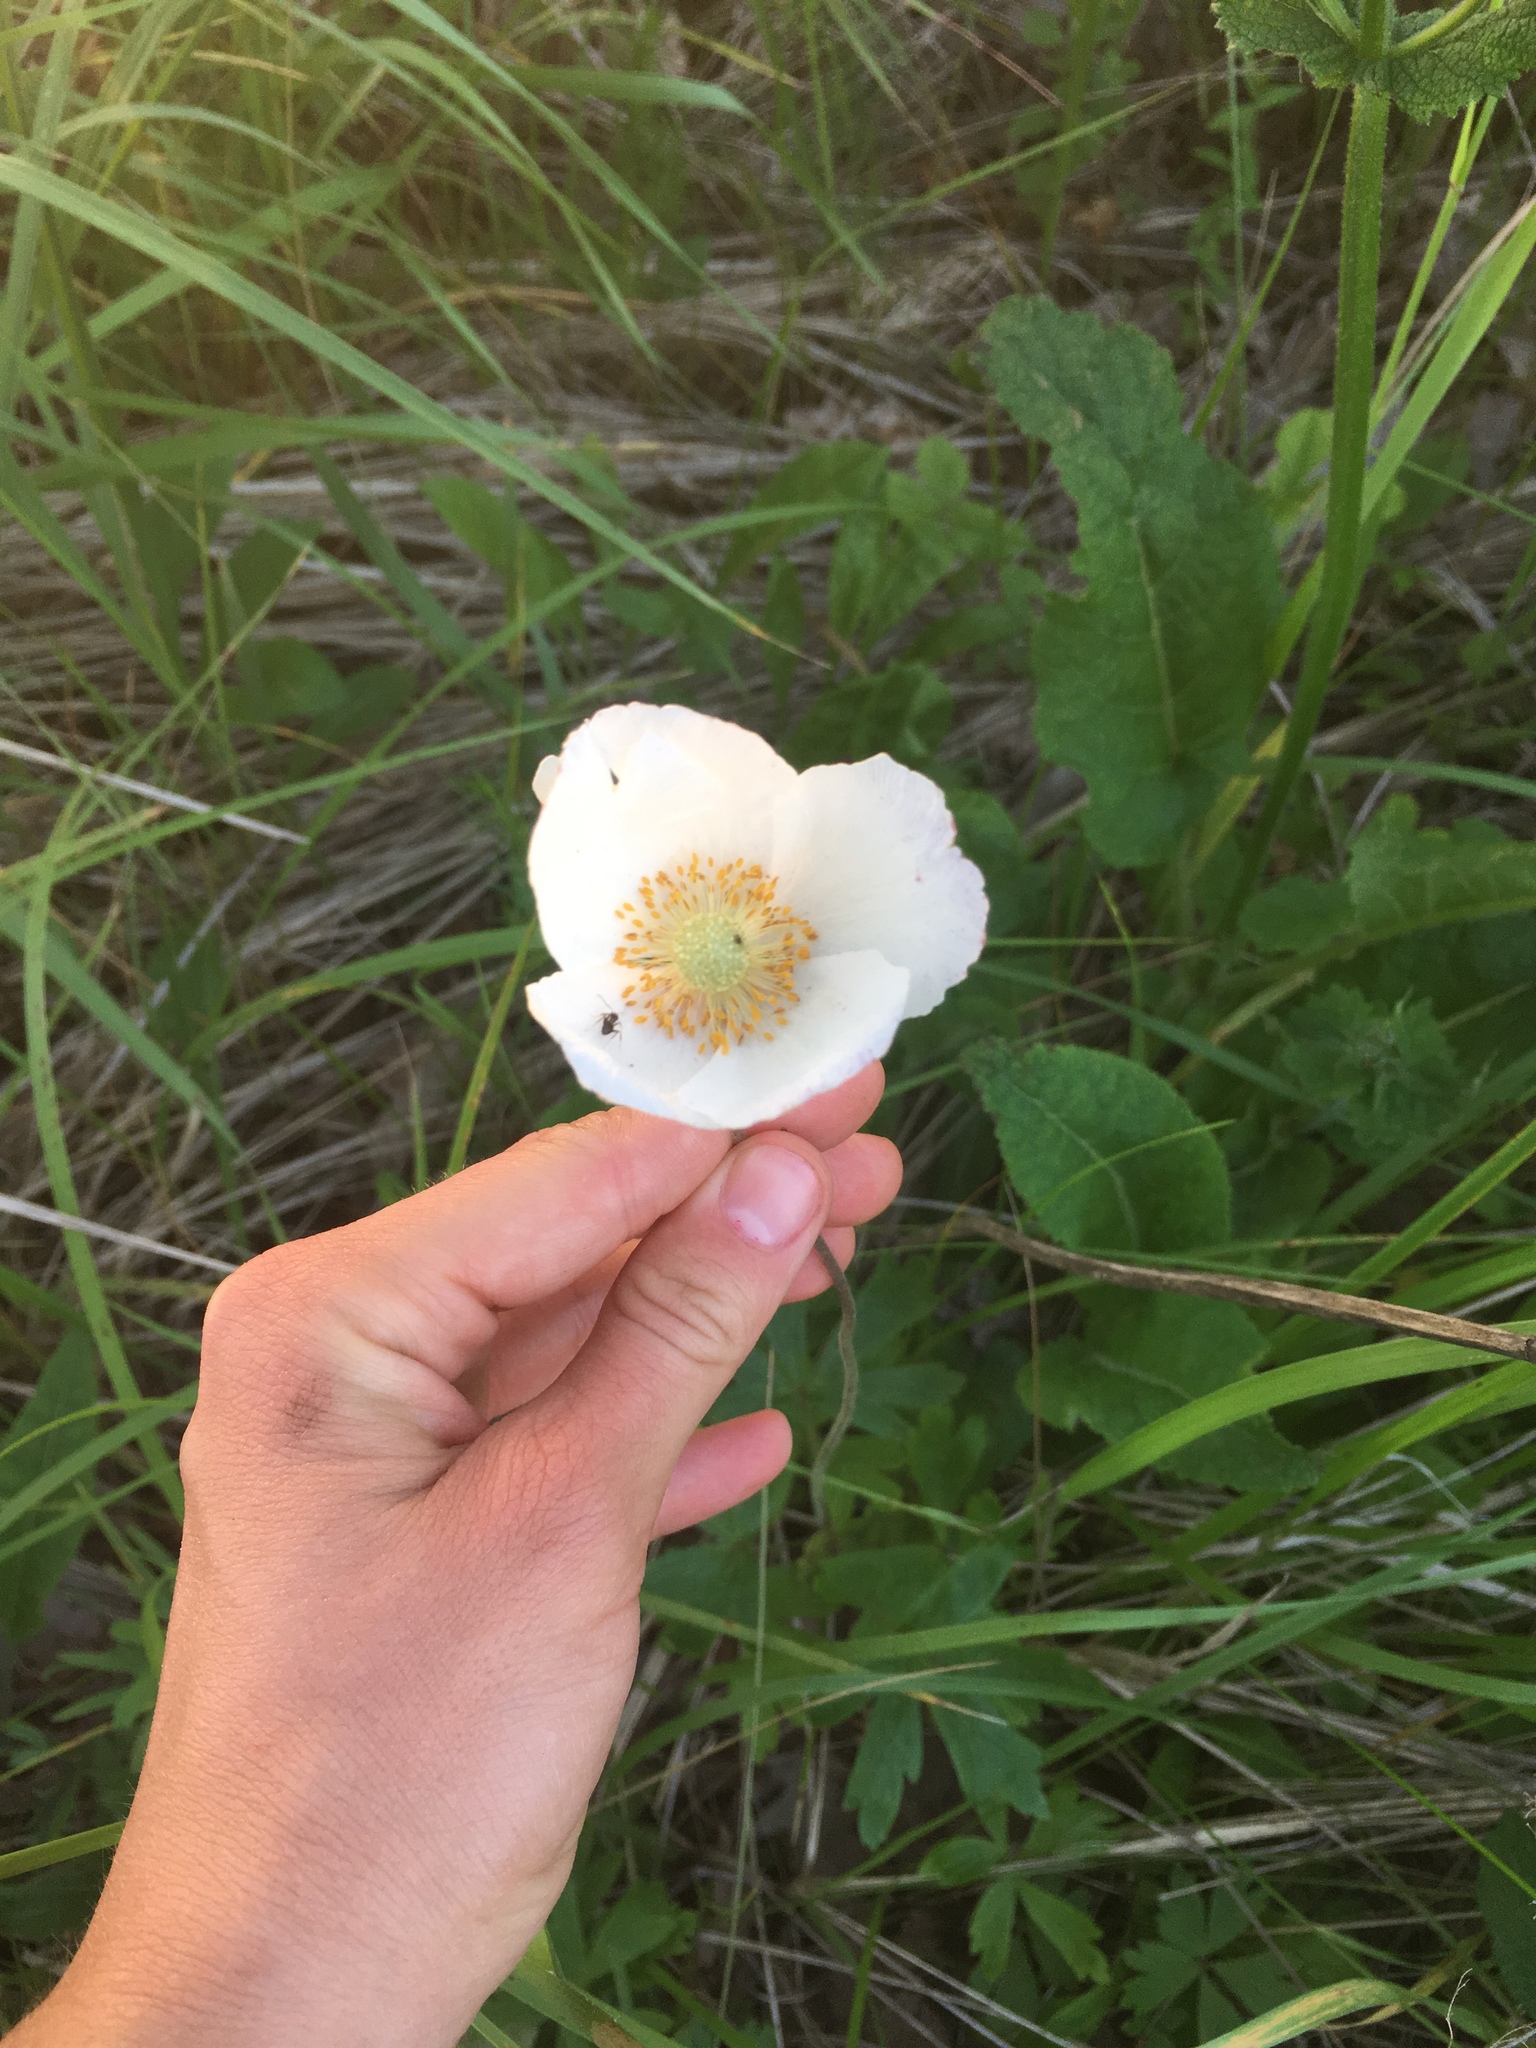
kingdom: Plantae
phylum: Tracheophyta
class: Magnoliopsida
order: Ranunculales
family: Ranunculaceae
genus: Anemone
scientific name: Anemone sylvestris
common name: Snowdrop anemone
